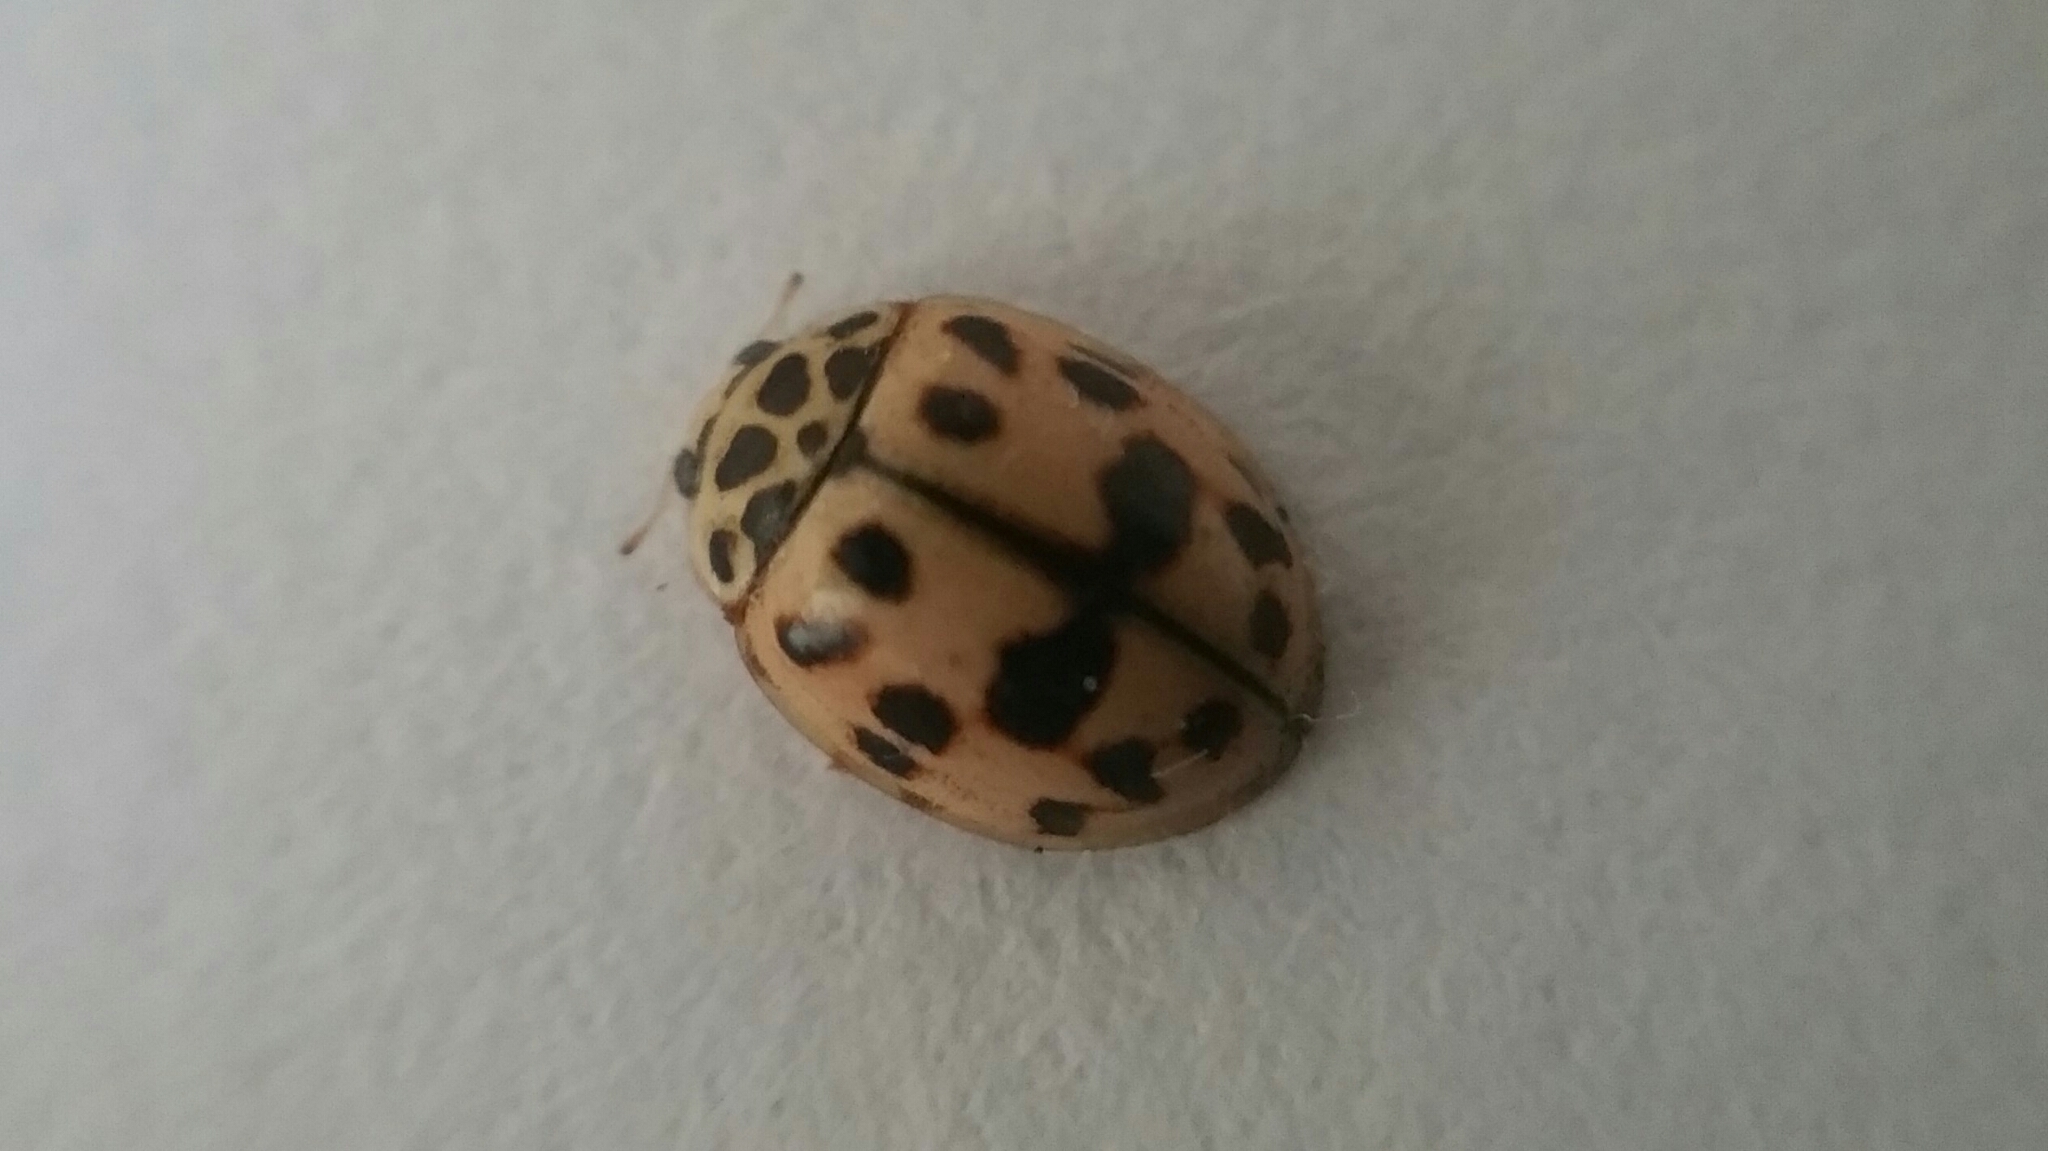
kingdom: Animalia
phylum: Arthropoda
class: Insecta
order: Coleoptera
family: Coccinellidae
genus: Oenopia
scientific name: Oenopia conglobata
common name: Ladybird beetle
